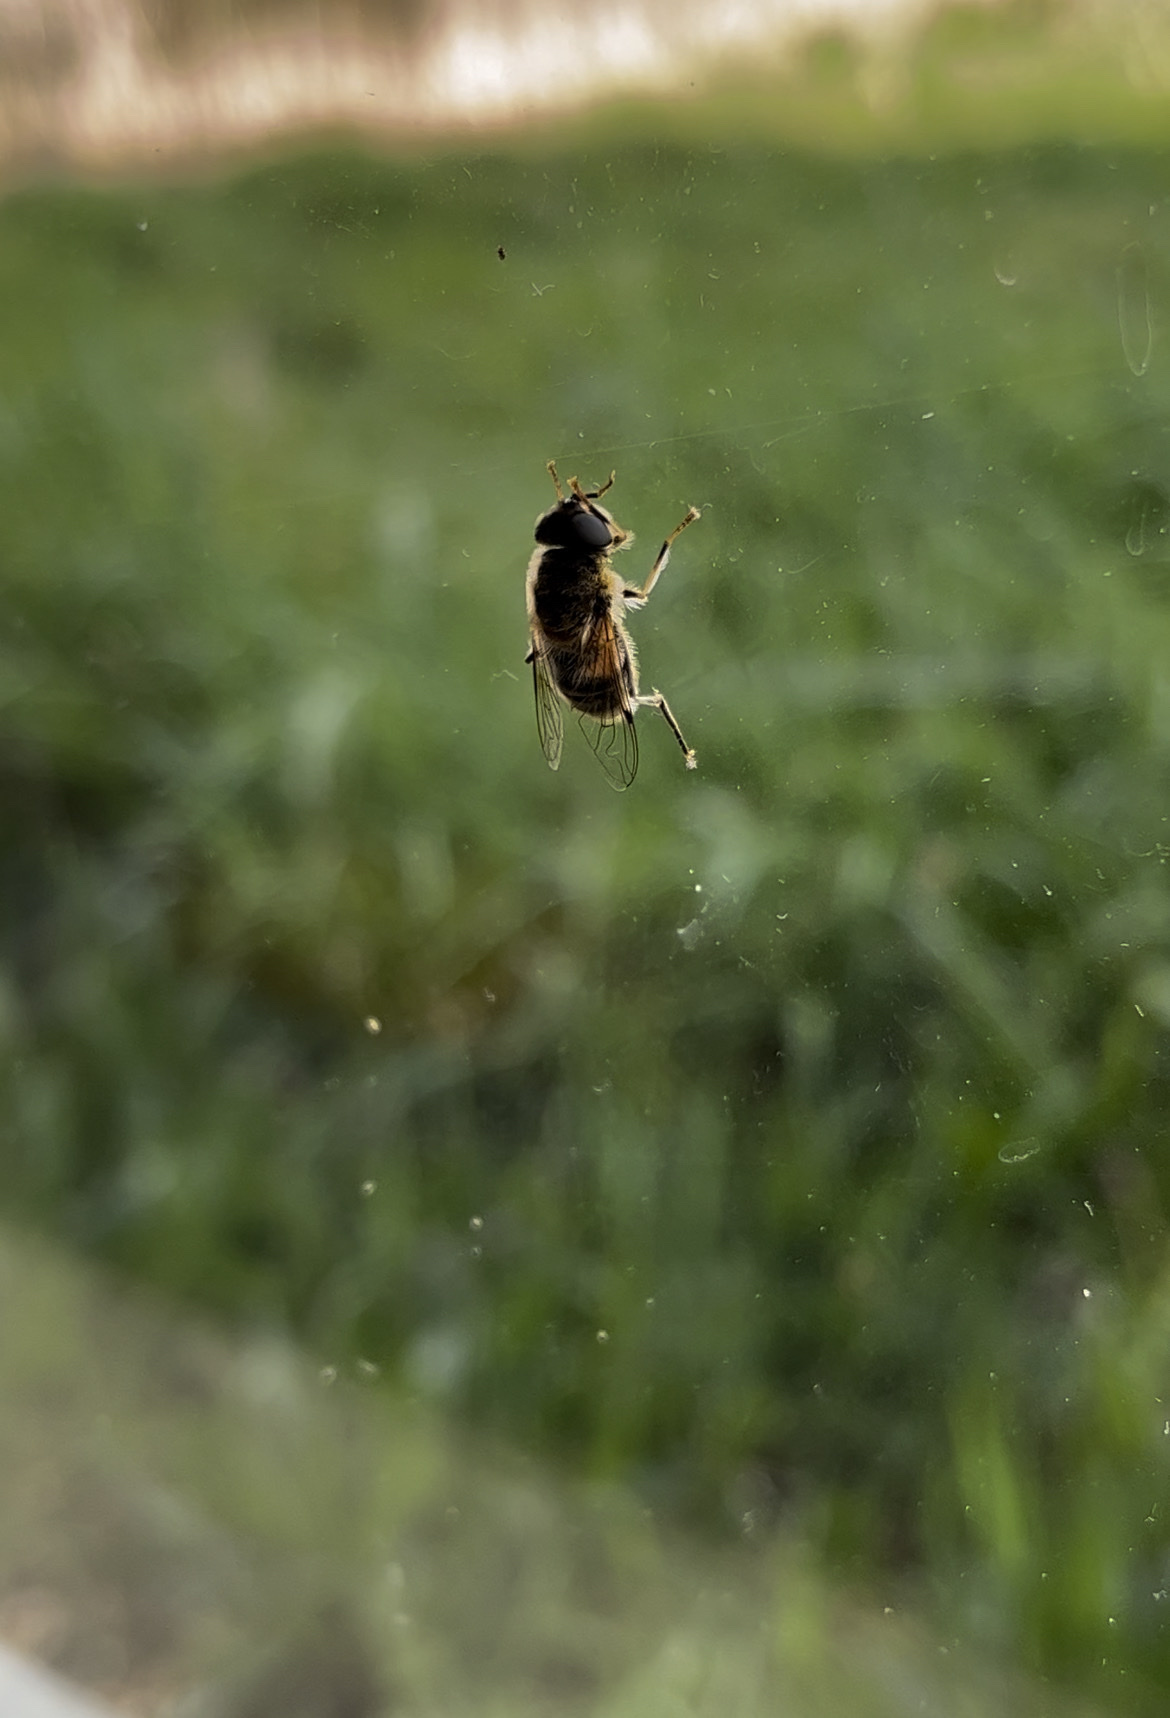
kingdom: Animalia
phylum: Arthropoda
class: Insecta
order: Diptera
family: Syrphidae
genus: Eristalis
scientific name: Eristalis pertinax
